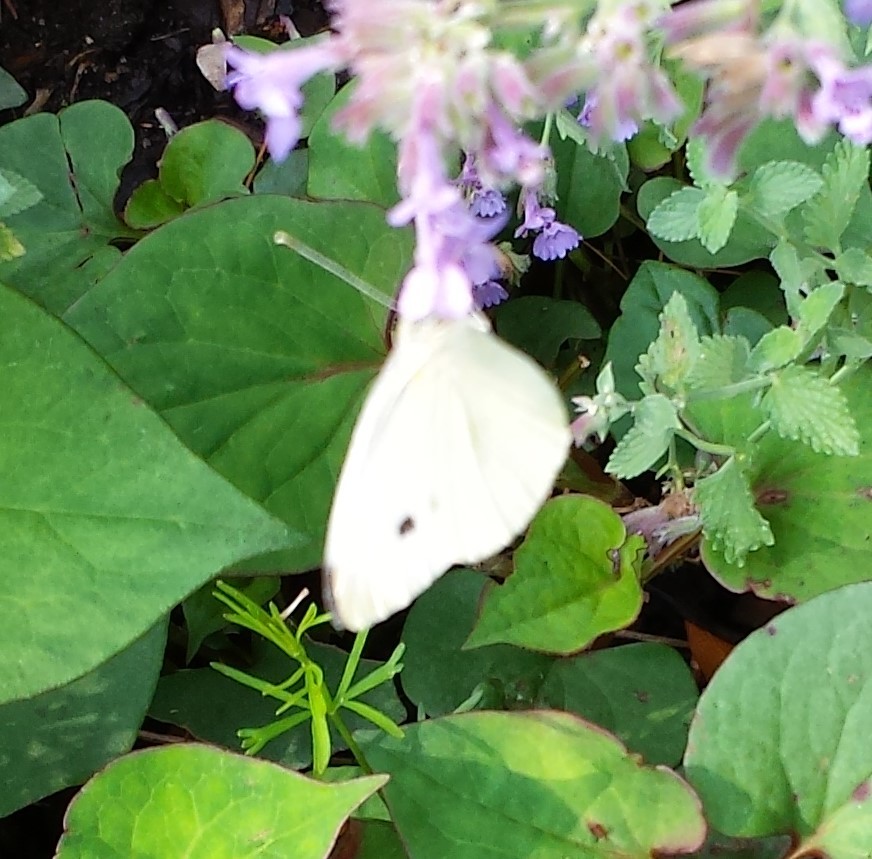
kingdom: Animalia
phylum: Arthropoda
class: Insecta
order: Lepidoptera
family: Pieridae
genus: Pieris
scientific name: Pieris rapae
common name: Small white
